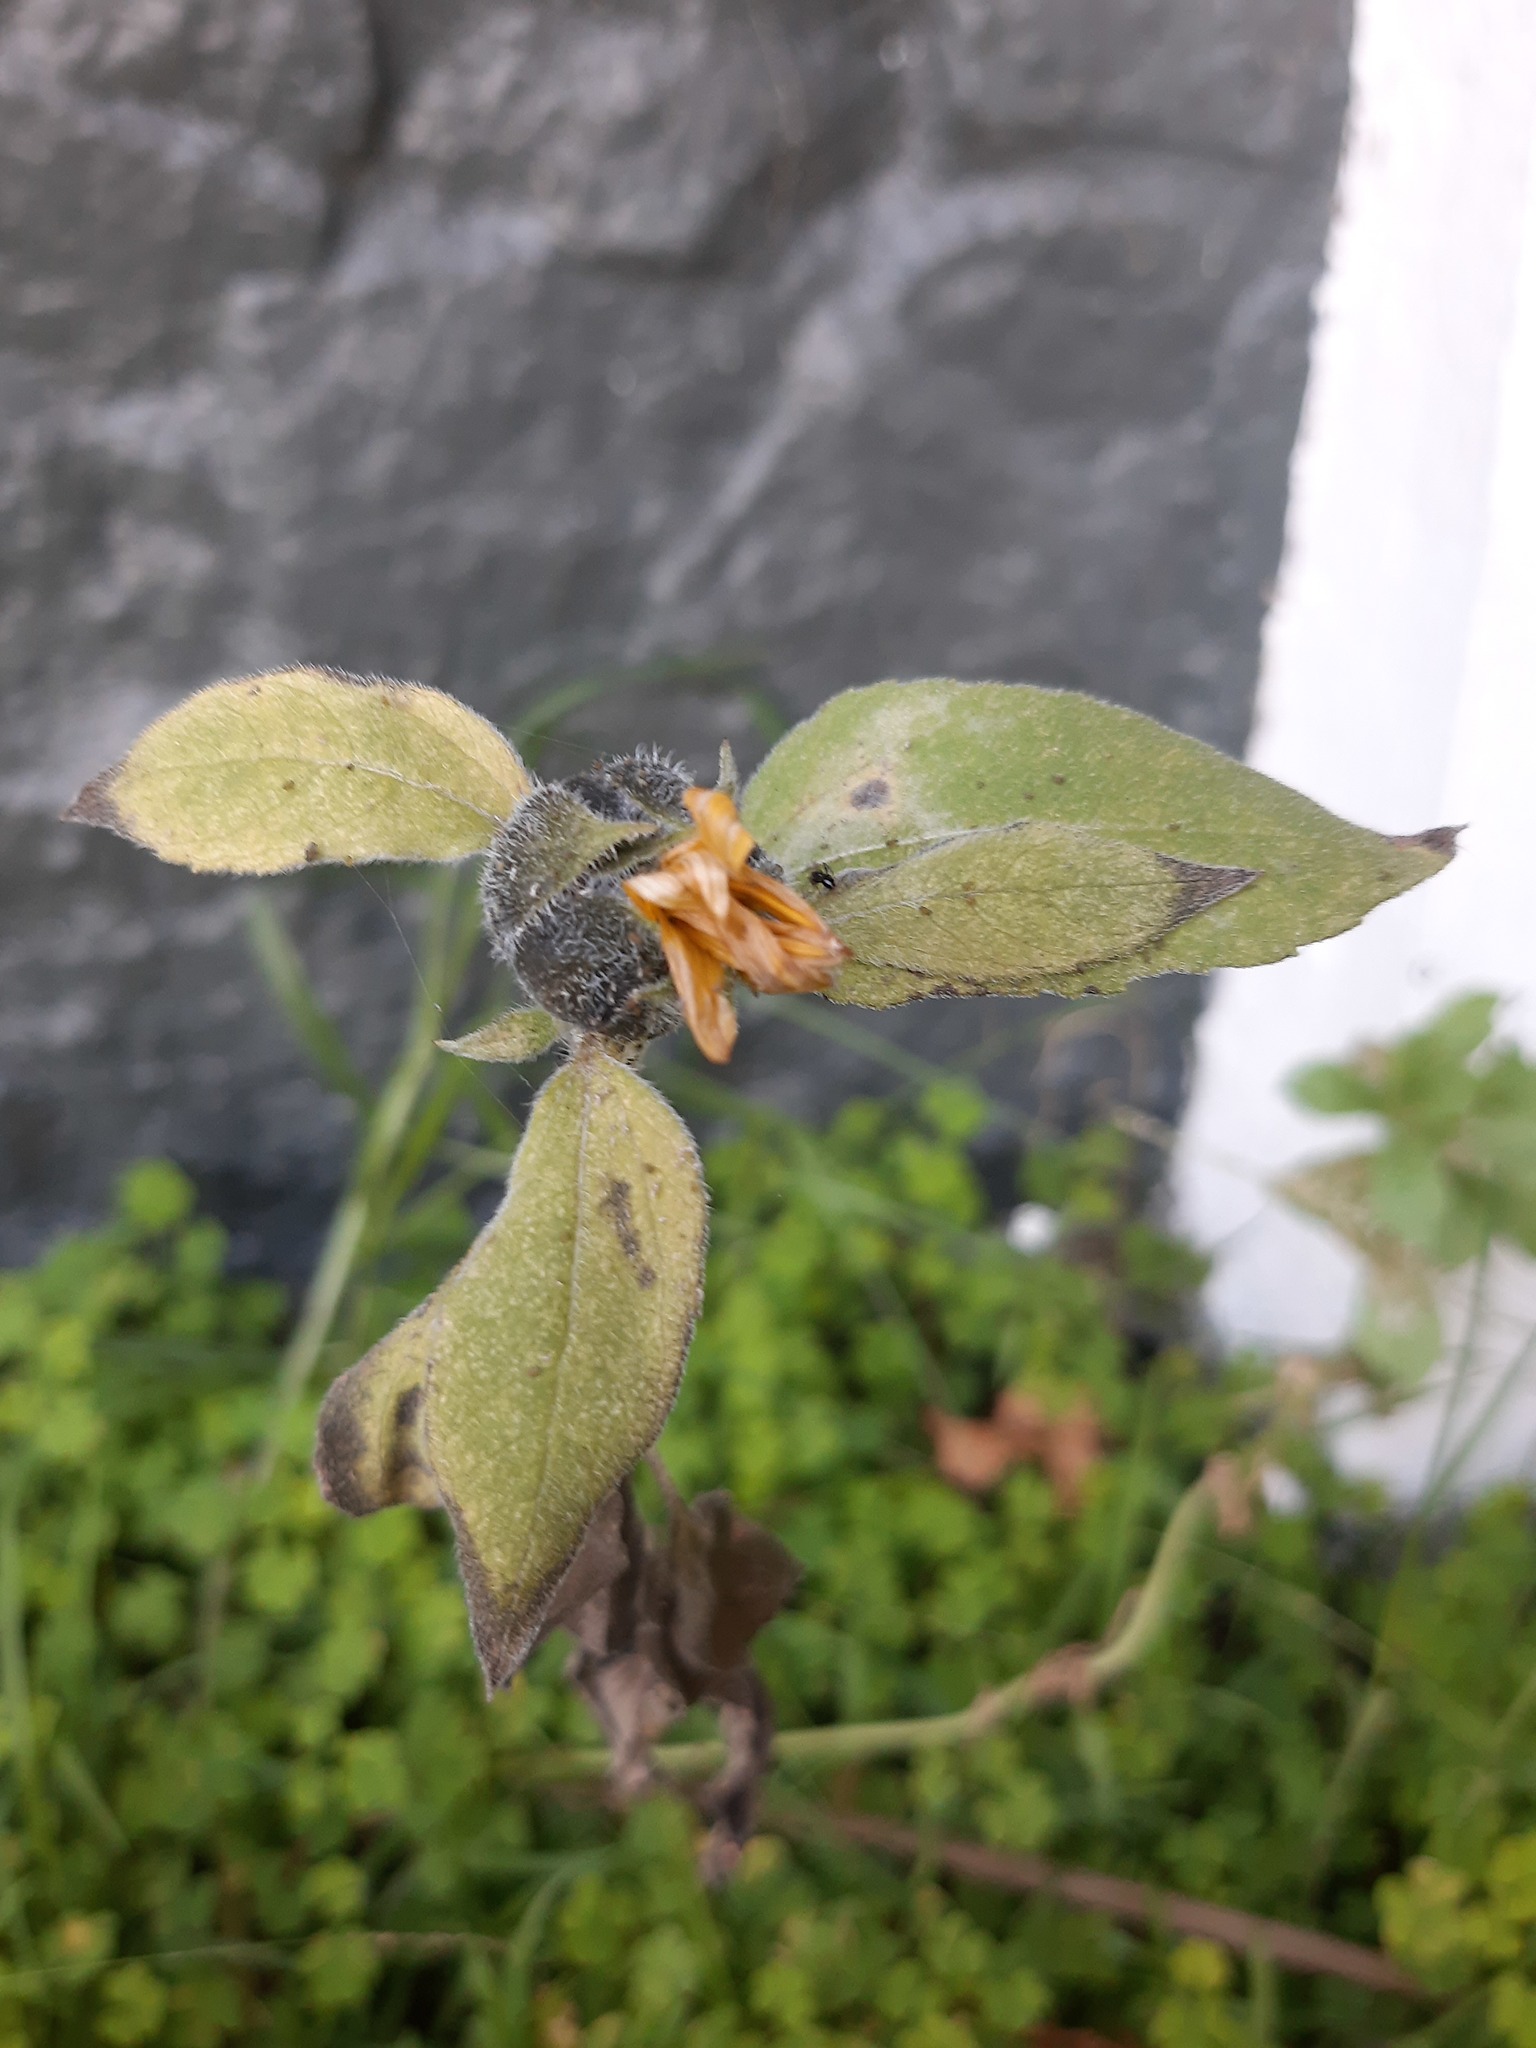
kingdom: Plantae
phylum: Tracheophyta
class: Magnoliopsida
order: Asterales
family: Asteraceae
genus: Helianthus
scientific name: Helianthus annuus
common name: Sunflower
